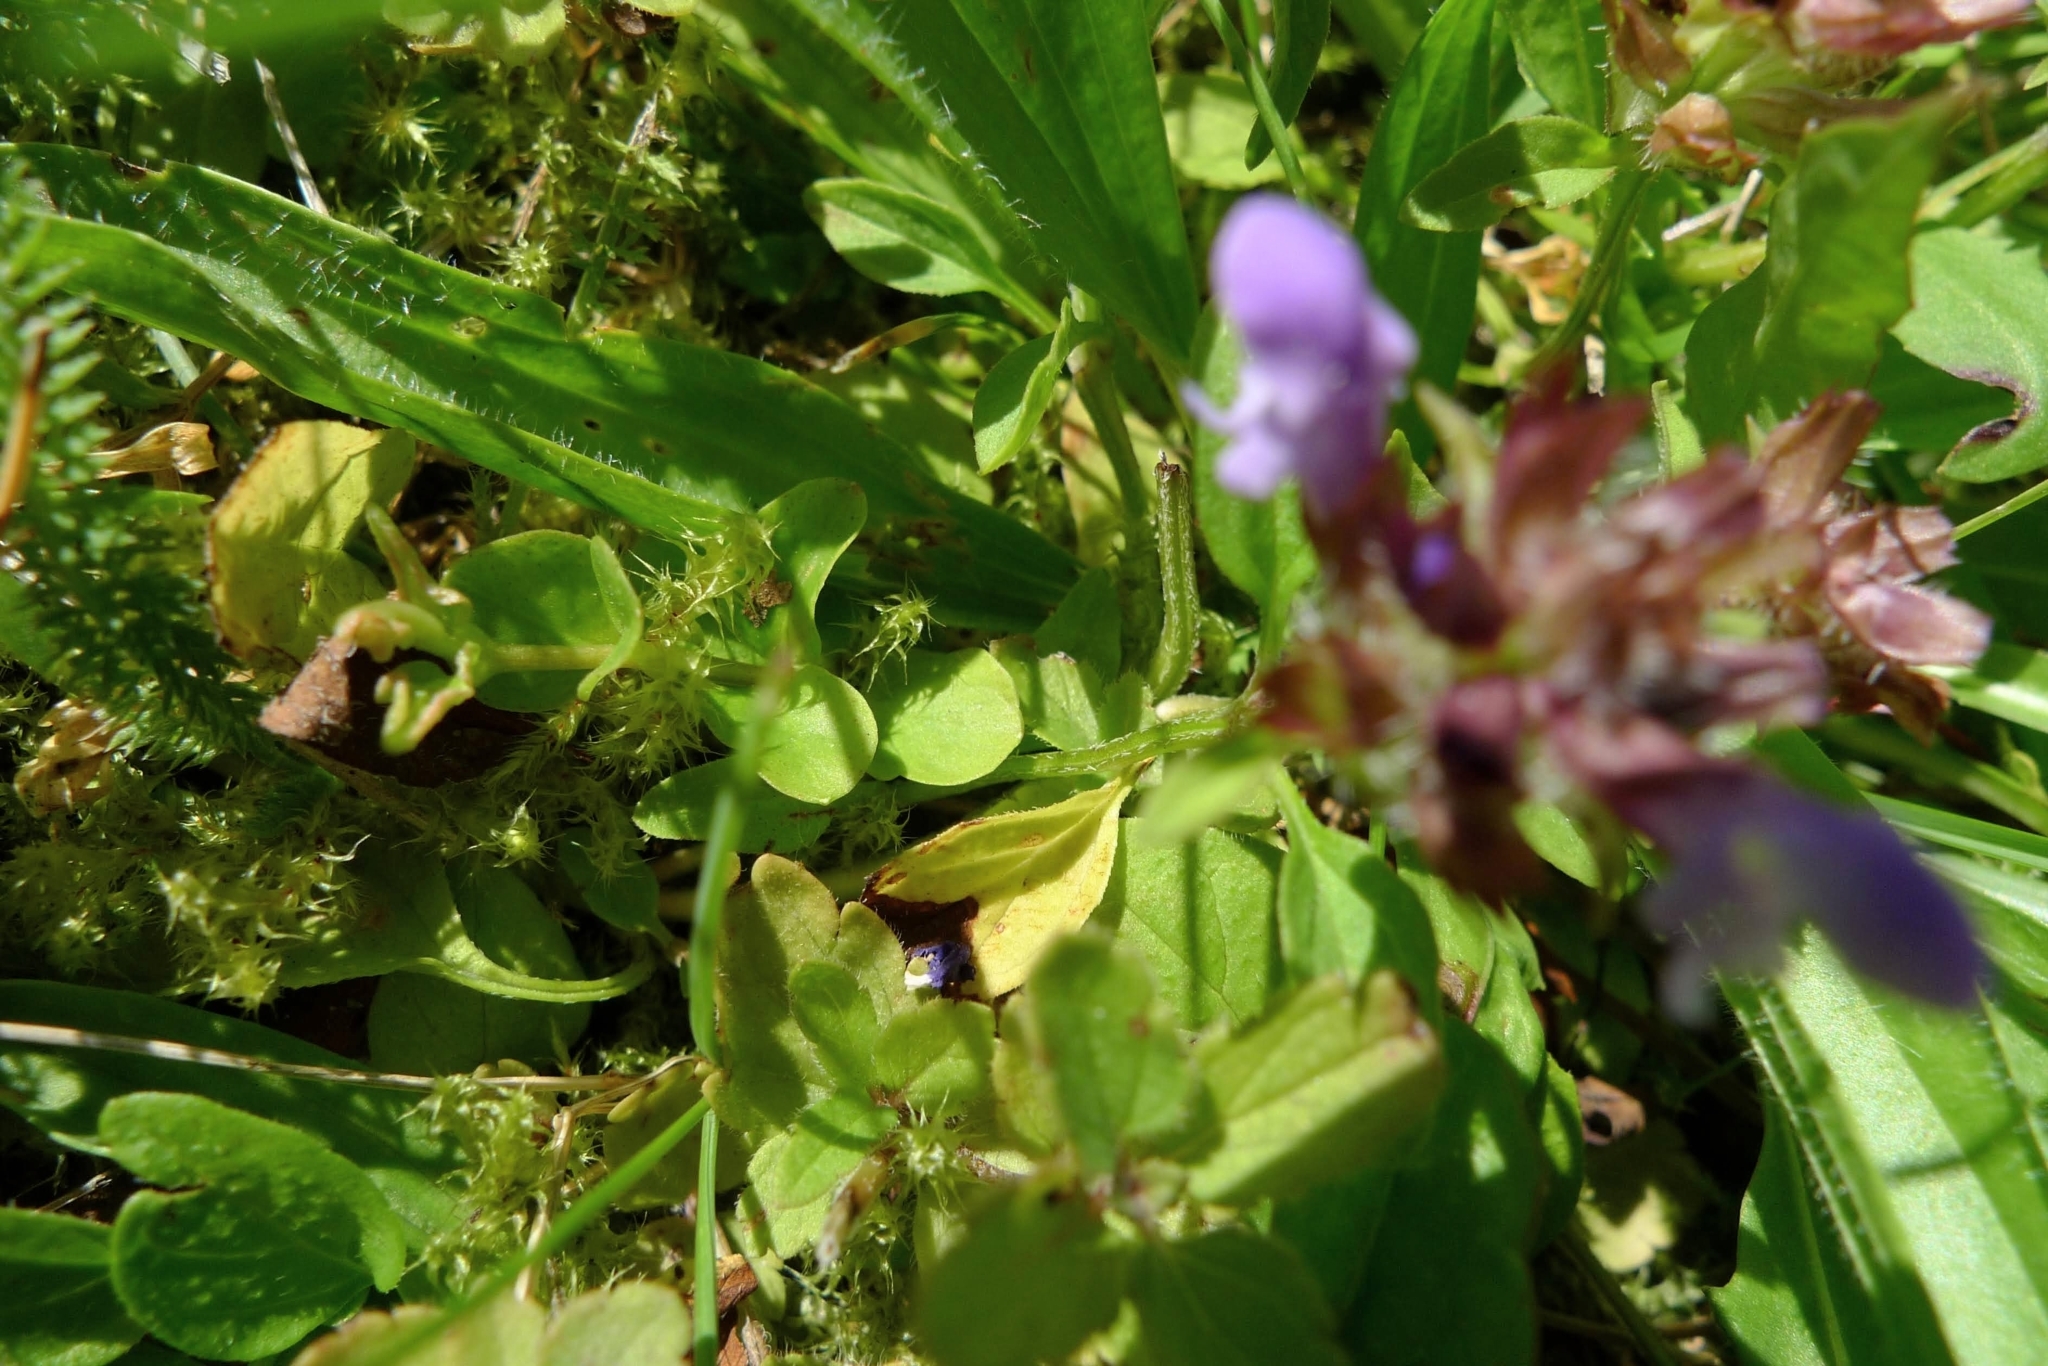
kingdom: Plantae
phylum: Tracheophyta
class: Magnoliopsida
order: Lamiales
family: Lamiaceae
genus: Prunella
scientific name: Prunella vulgaris
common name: Heal-all
